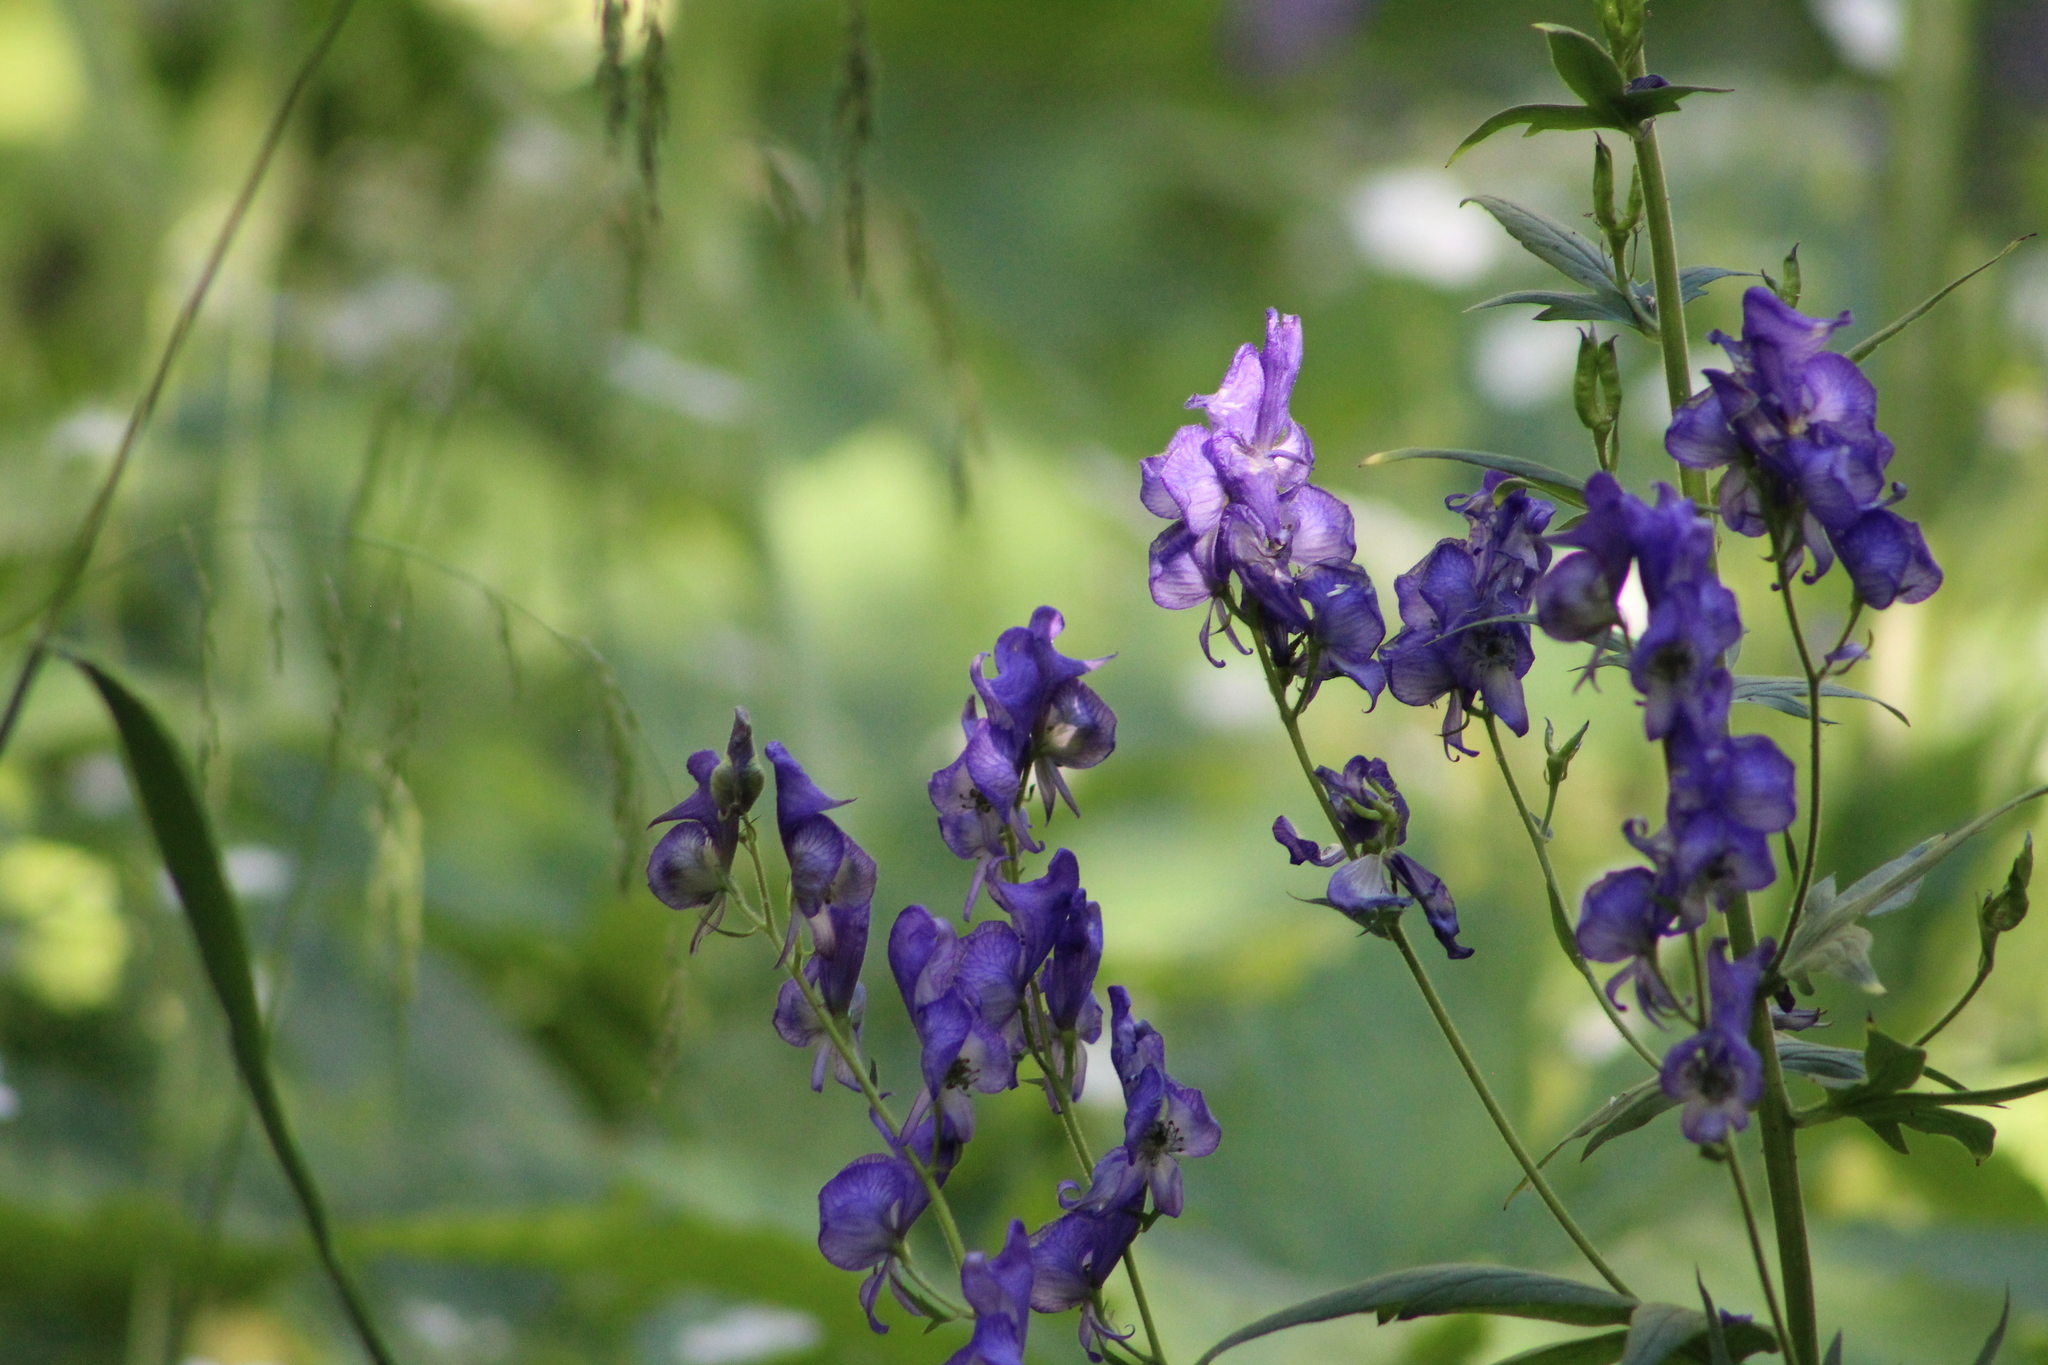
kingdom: Plantae
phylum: Tracheophyta
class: Magnoliopsida
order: Ranunculales
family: Ranunculaceae
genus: Aconitum
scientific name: Aconitum columbianum
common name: Columbia aconite
